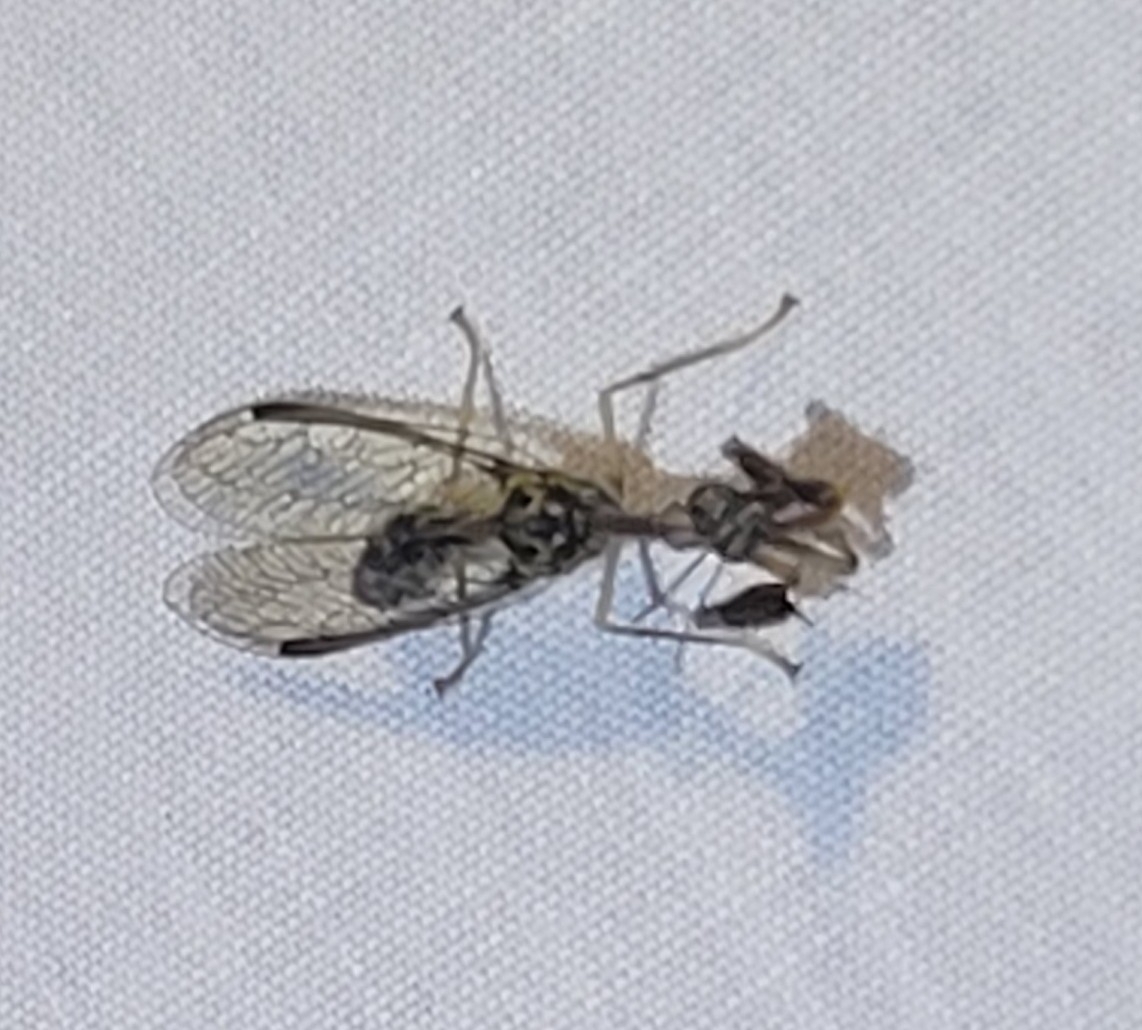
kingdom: Animalia
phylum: Arthropoda
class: Insecta
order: Neuroptera
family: Mantispidae
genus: Dicromantispa
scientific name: Dicromantispa sayi
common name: Say's mantidfly
